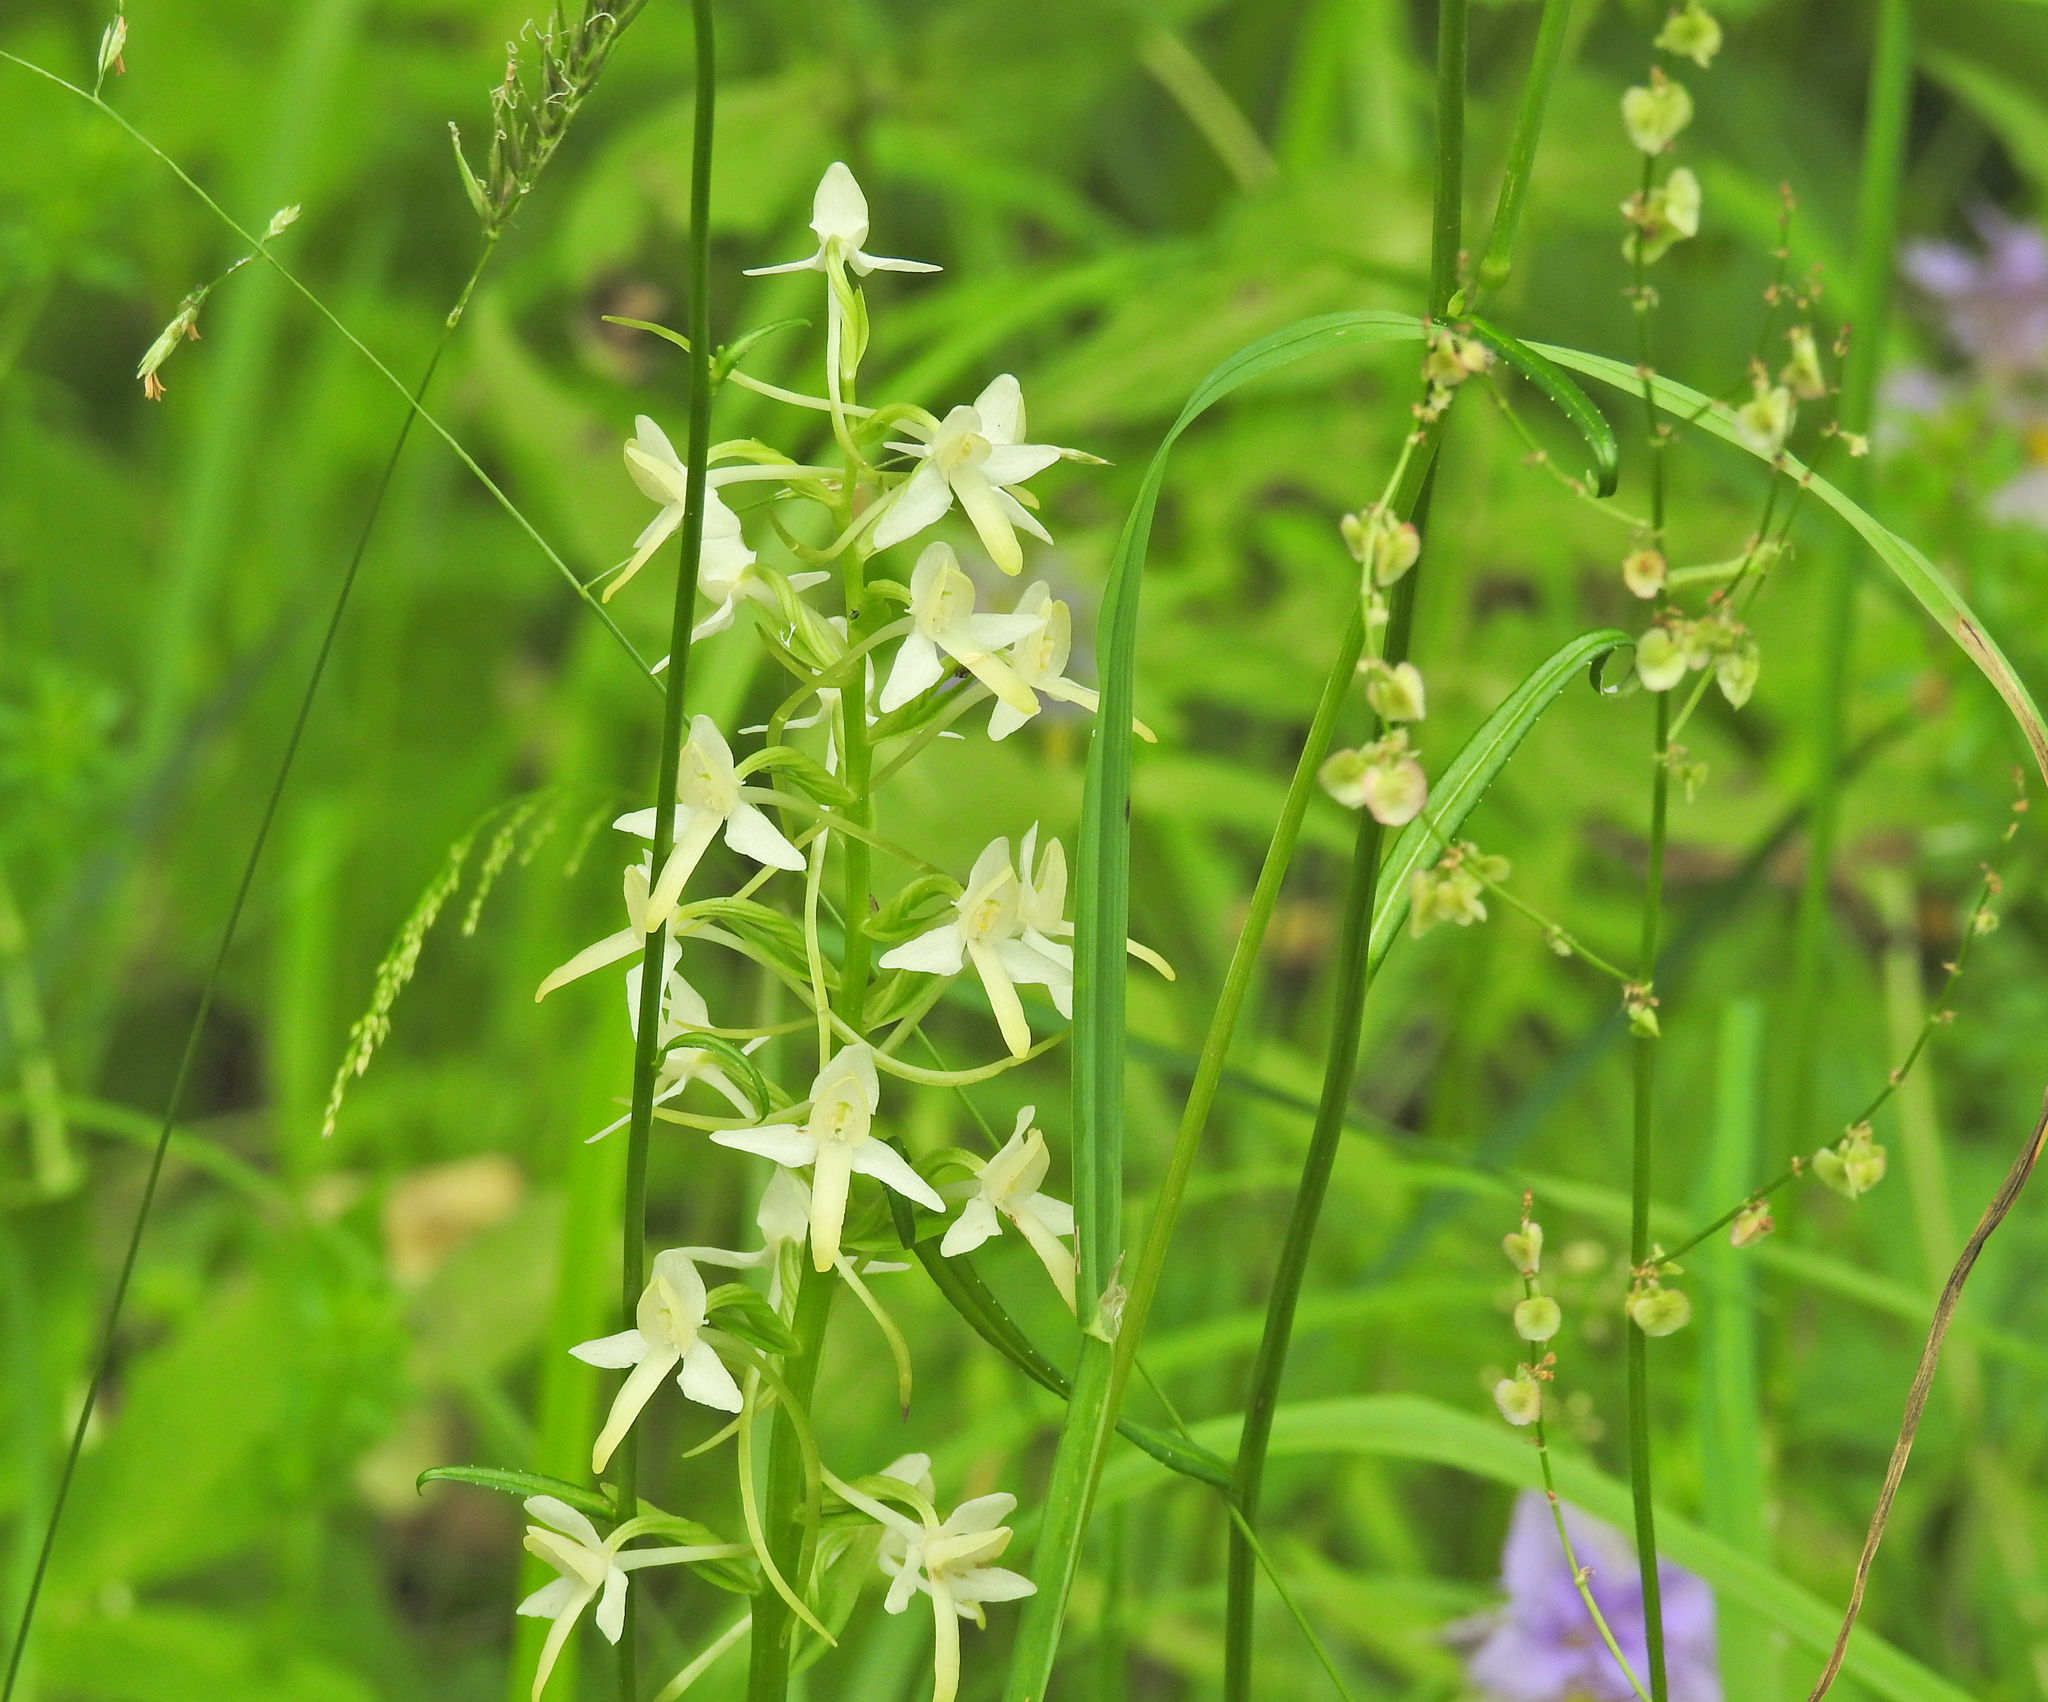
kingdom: Plantae
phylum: Tracheophyta
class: Liliopsida
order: Asparagales
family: Orchidaceae
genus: Platanthera
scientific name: Platanthera bifolia
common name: Lesser butterfly-orchid
